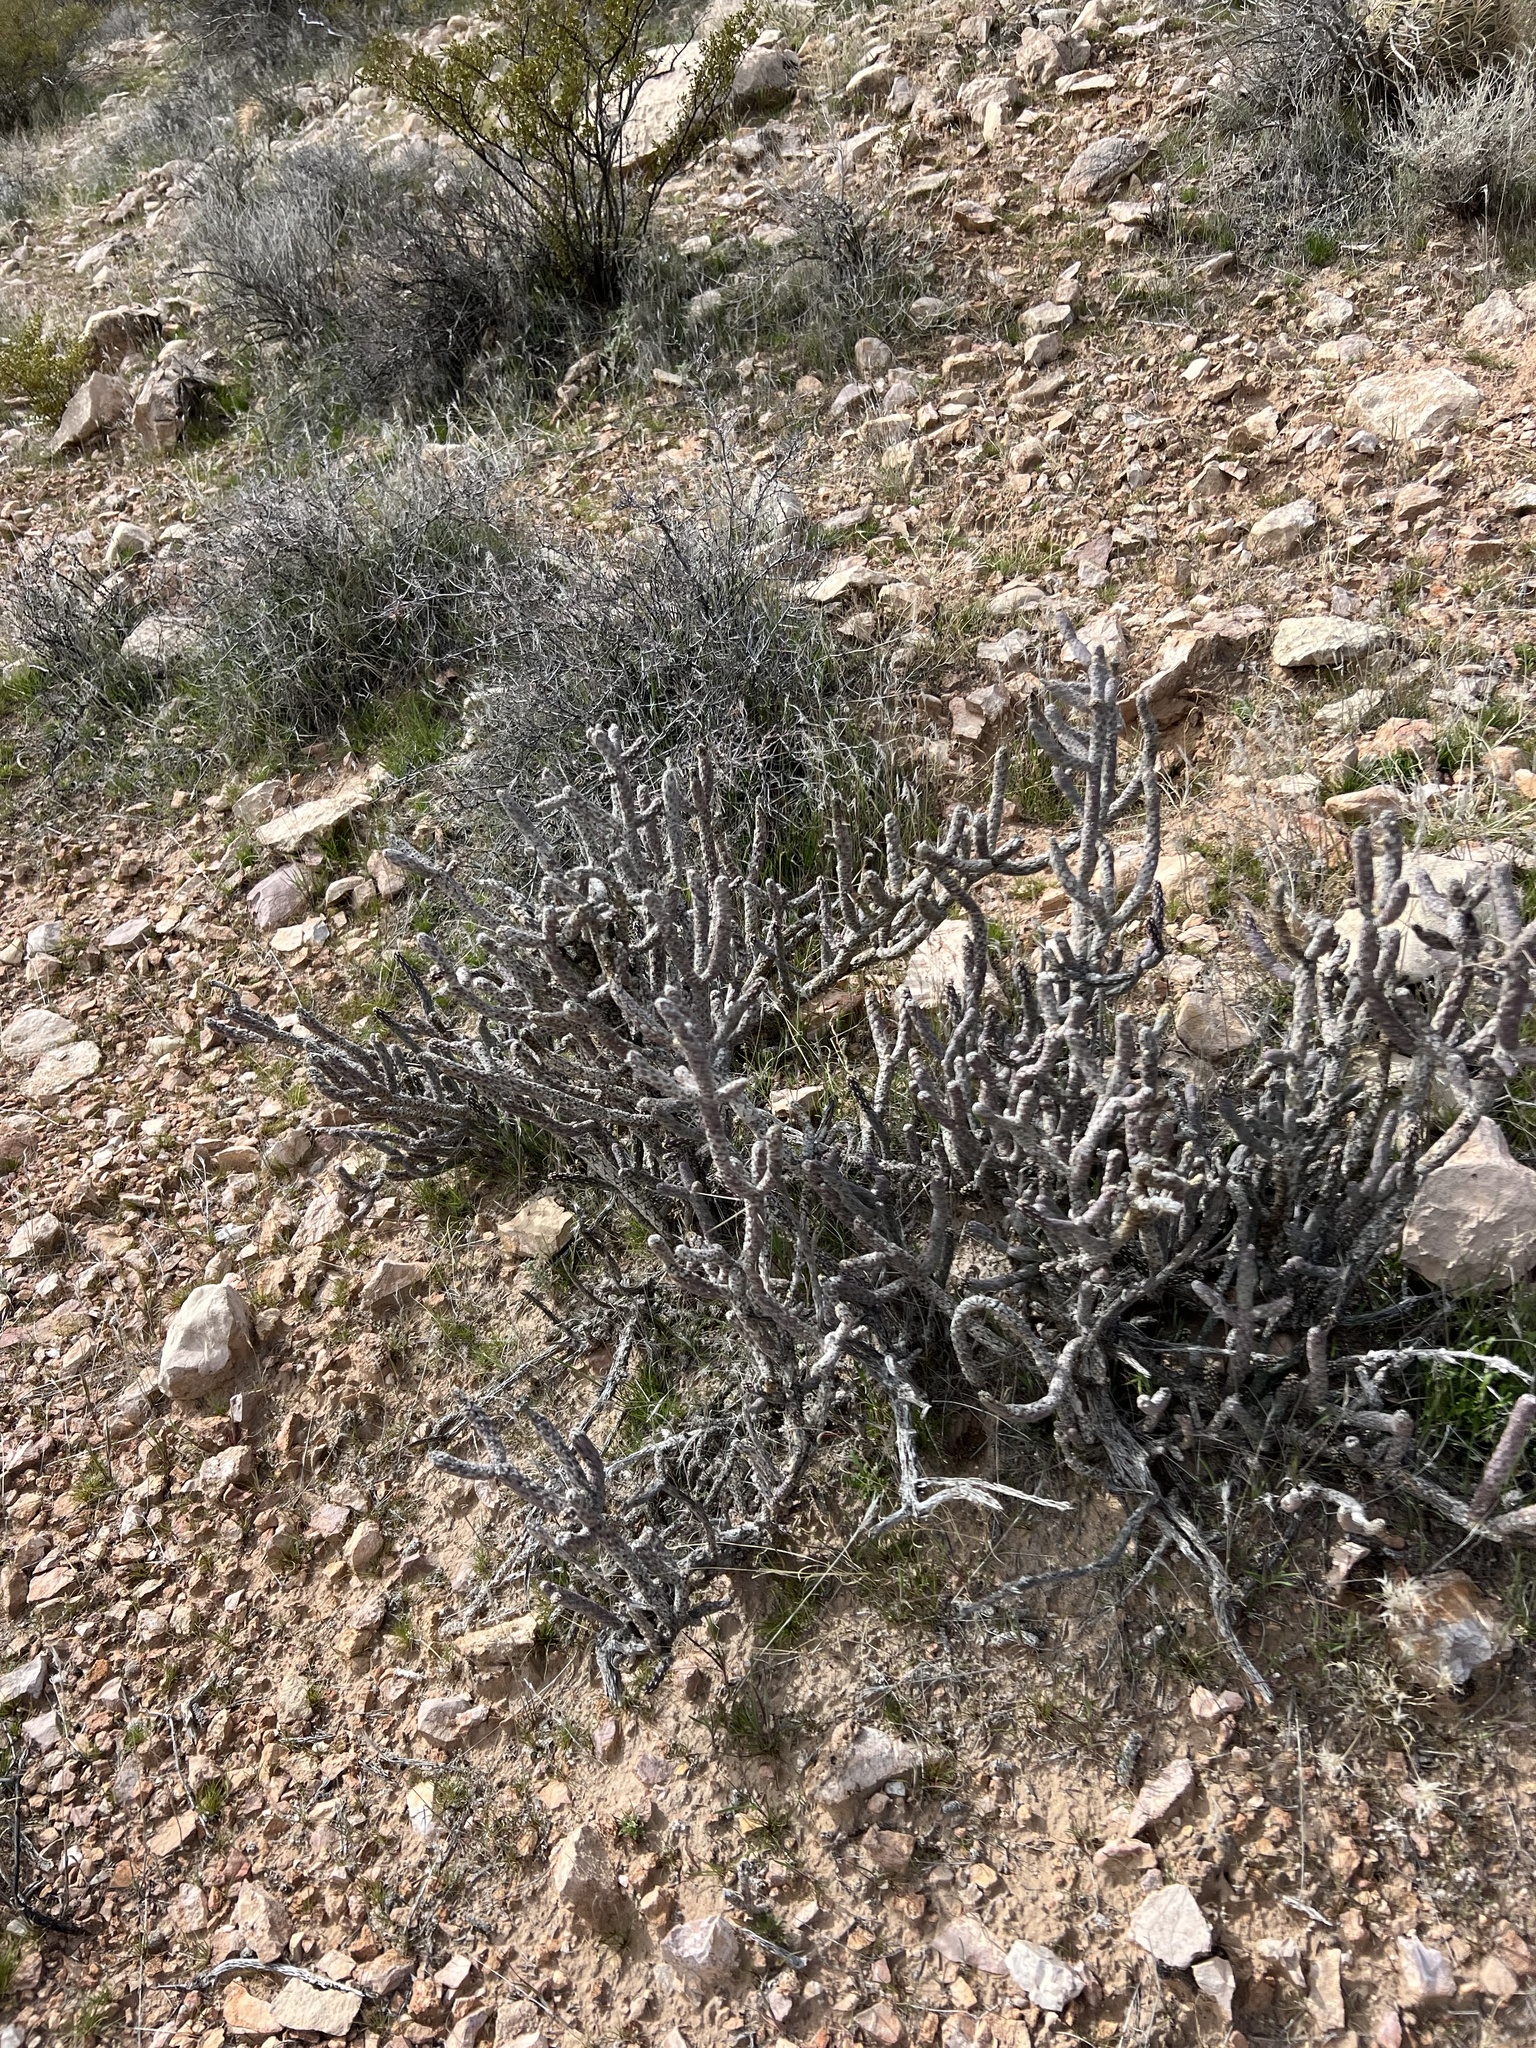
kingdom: Plantae
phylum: Tracheophyta
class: Magnoliopsida
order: Caryophyllales
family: Cactaceae
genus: Cylindropuntia
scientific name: Cylindropuntia ramosissima
